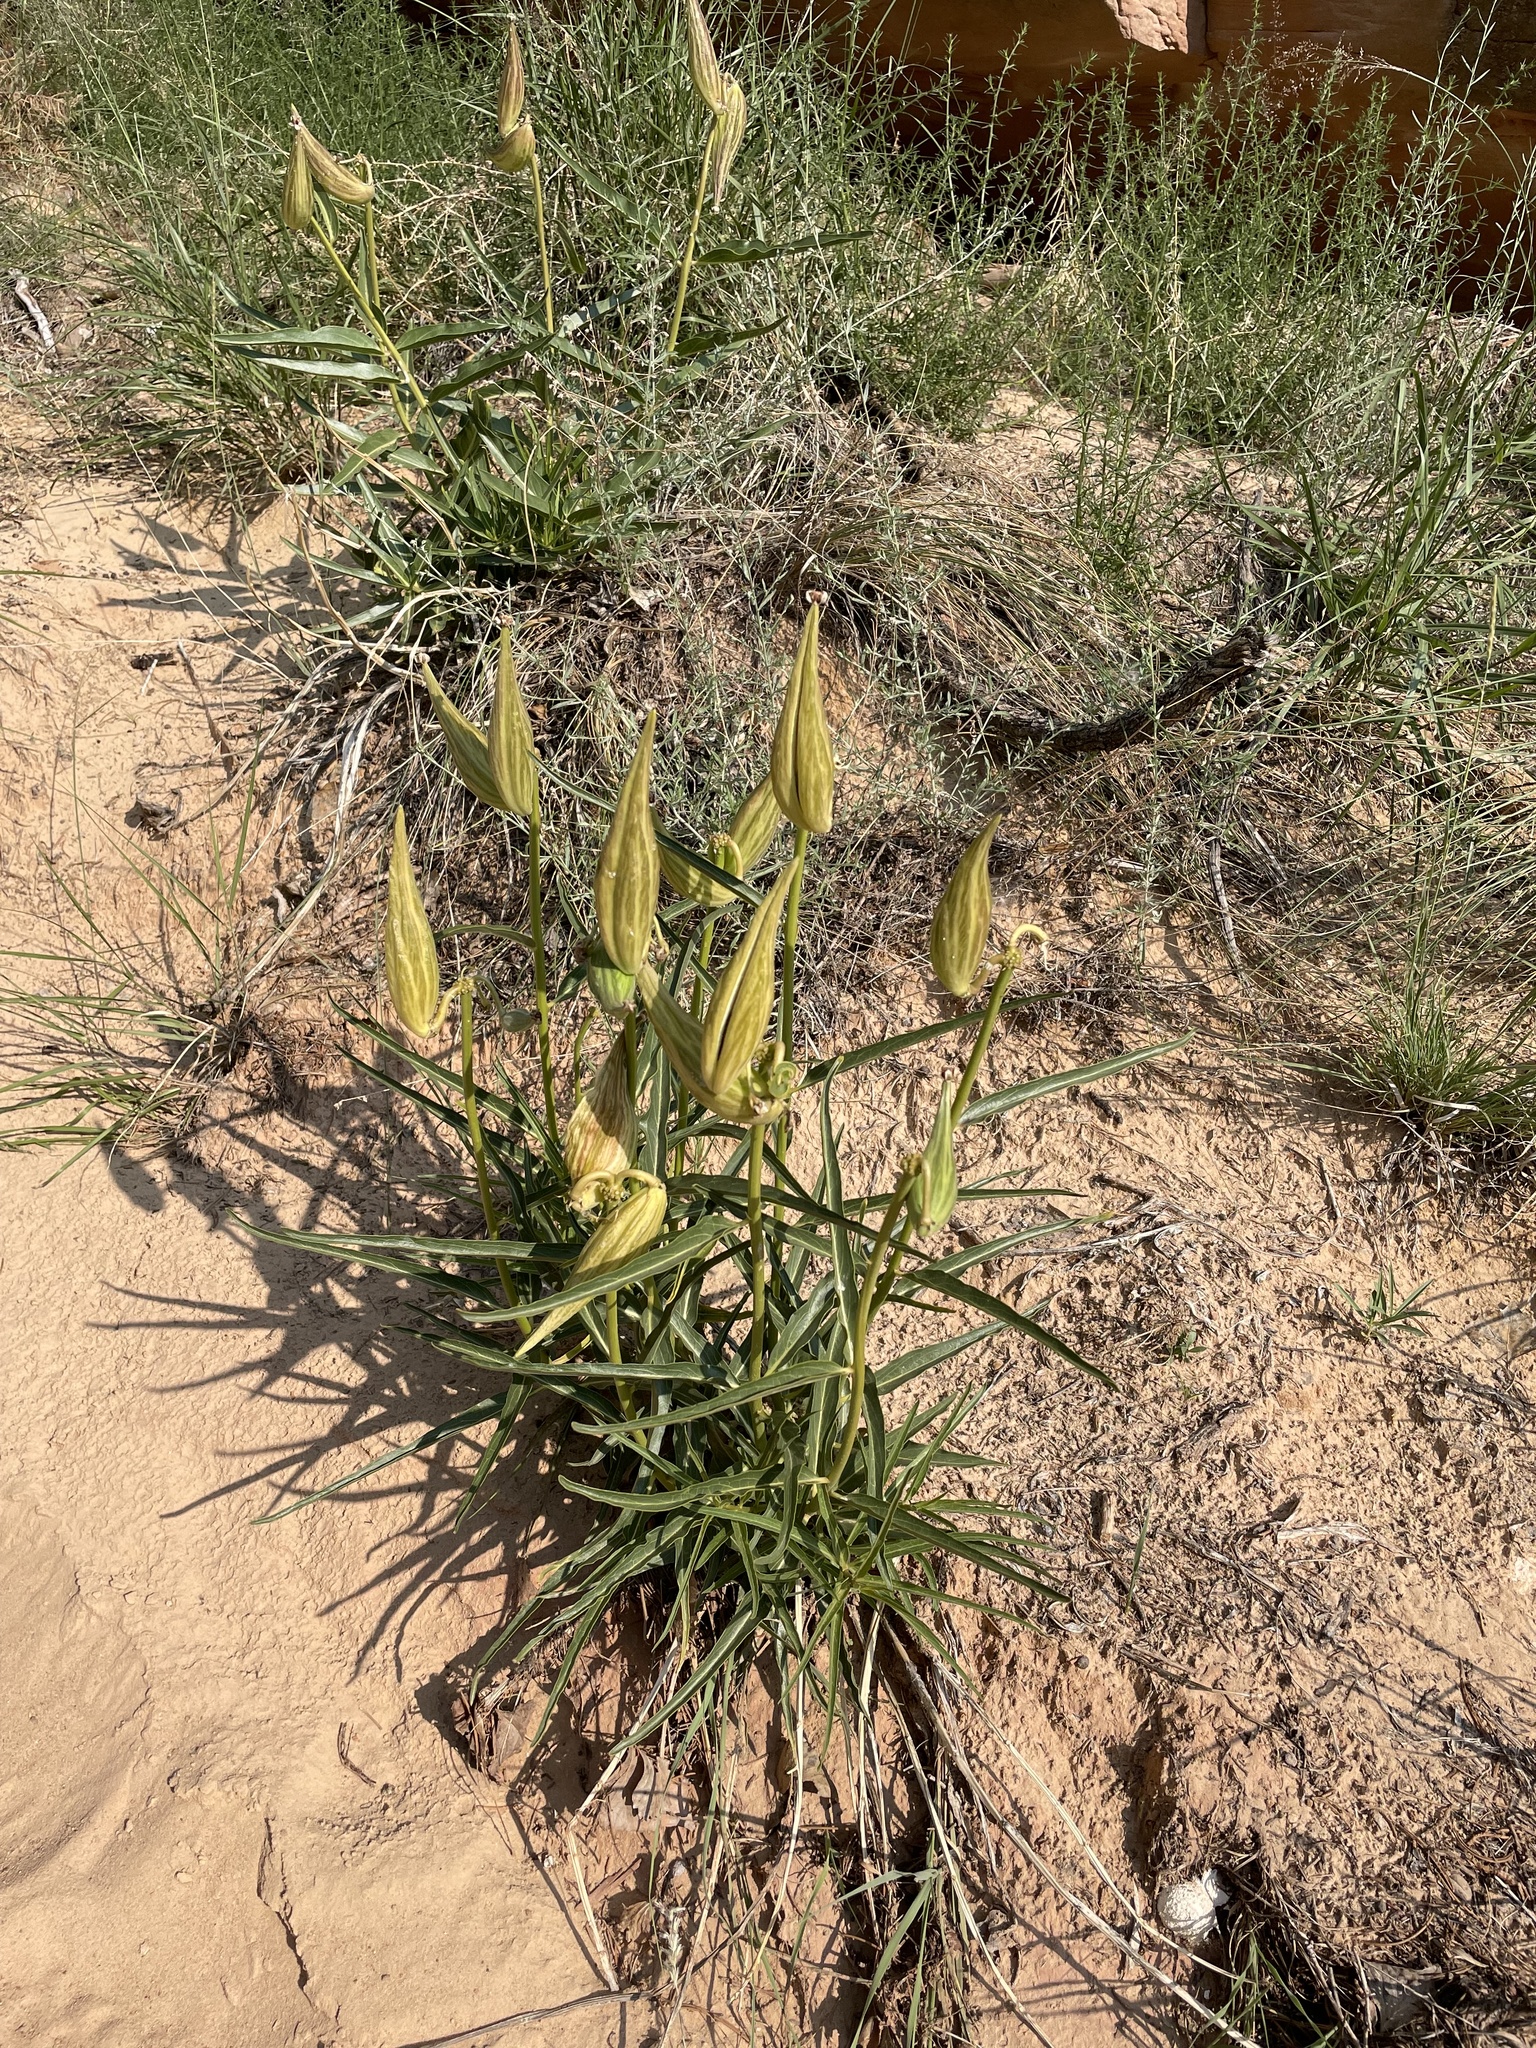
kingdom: Plantae
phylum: Tracheophyta
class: Magnoliopsida
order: Gentianales
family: Apocynaceae
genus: Asclepias
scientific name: Asclepias asperula
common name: Antelope horns
